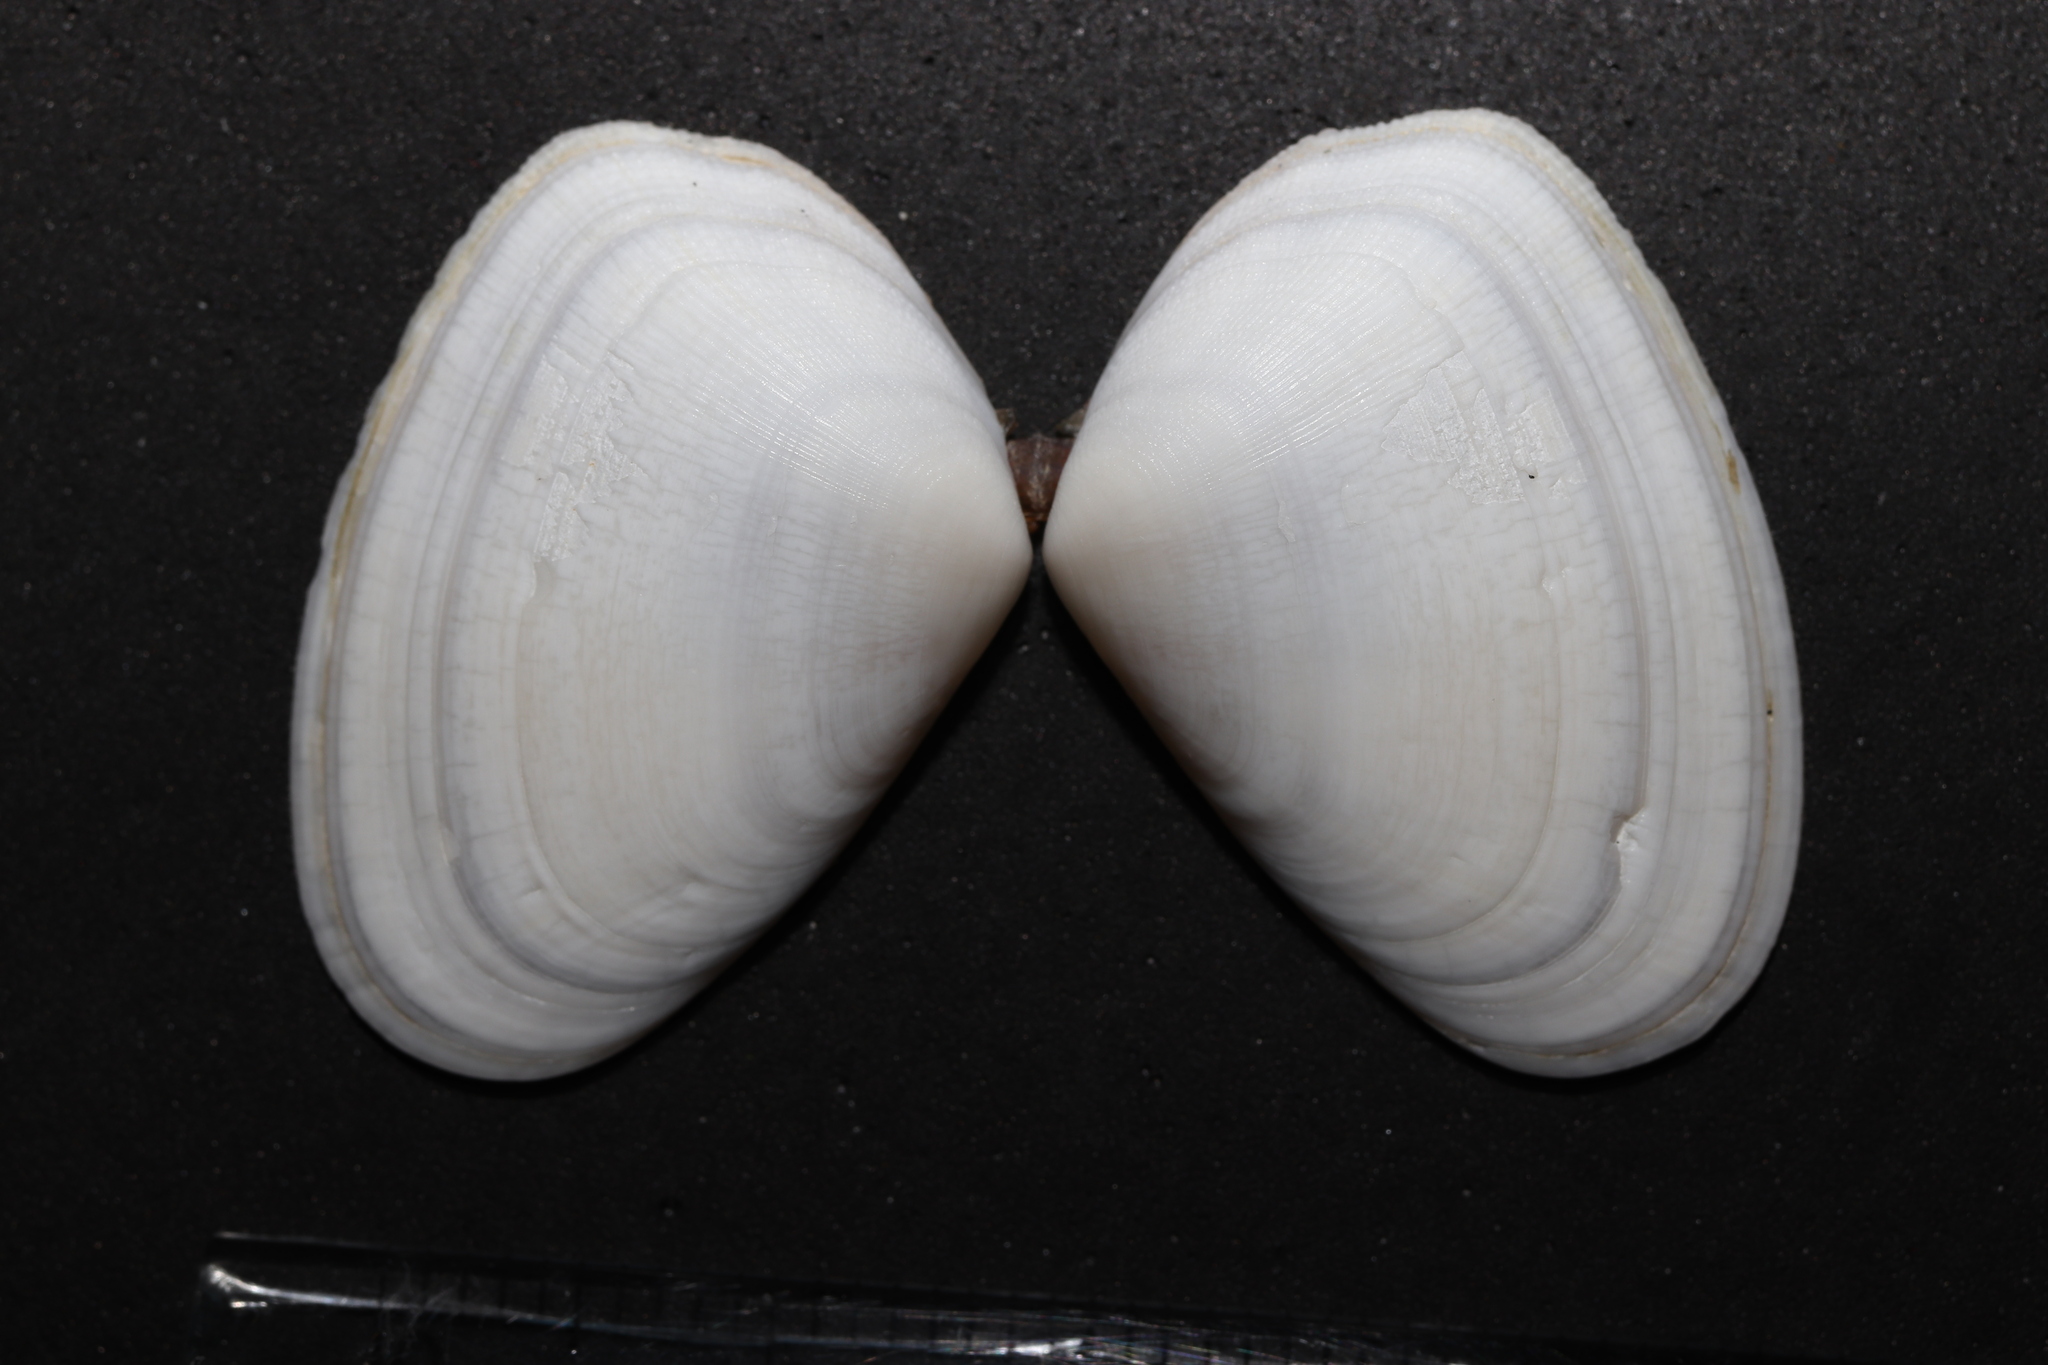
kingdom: Animalia
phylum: Mollusca
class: Bivalvia
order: Cardiida
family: Donacidae
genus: Latona
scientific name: Latona cuneata
